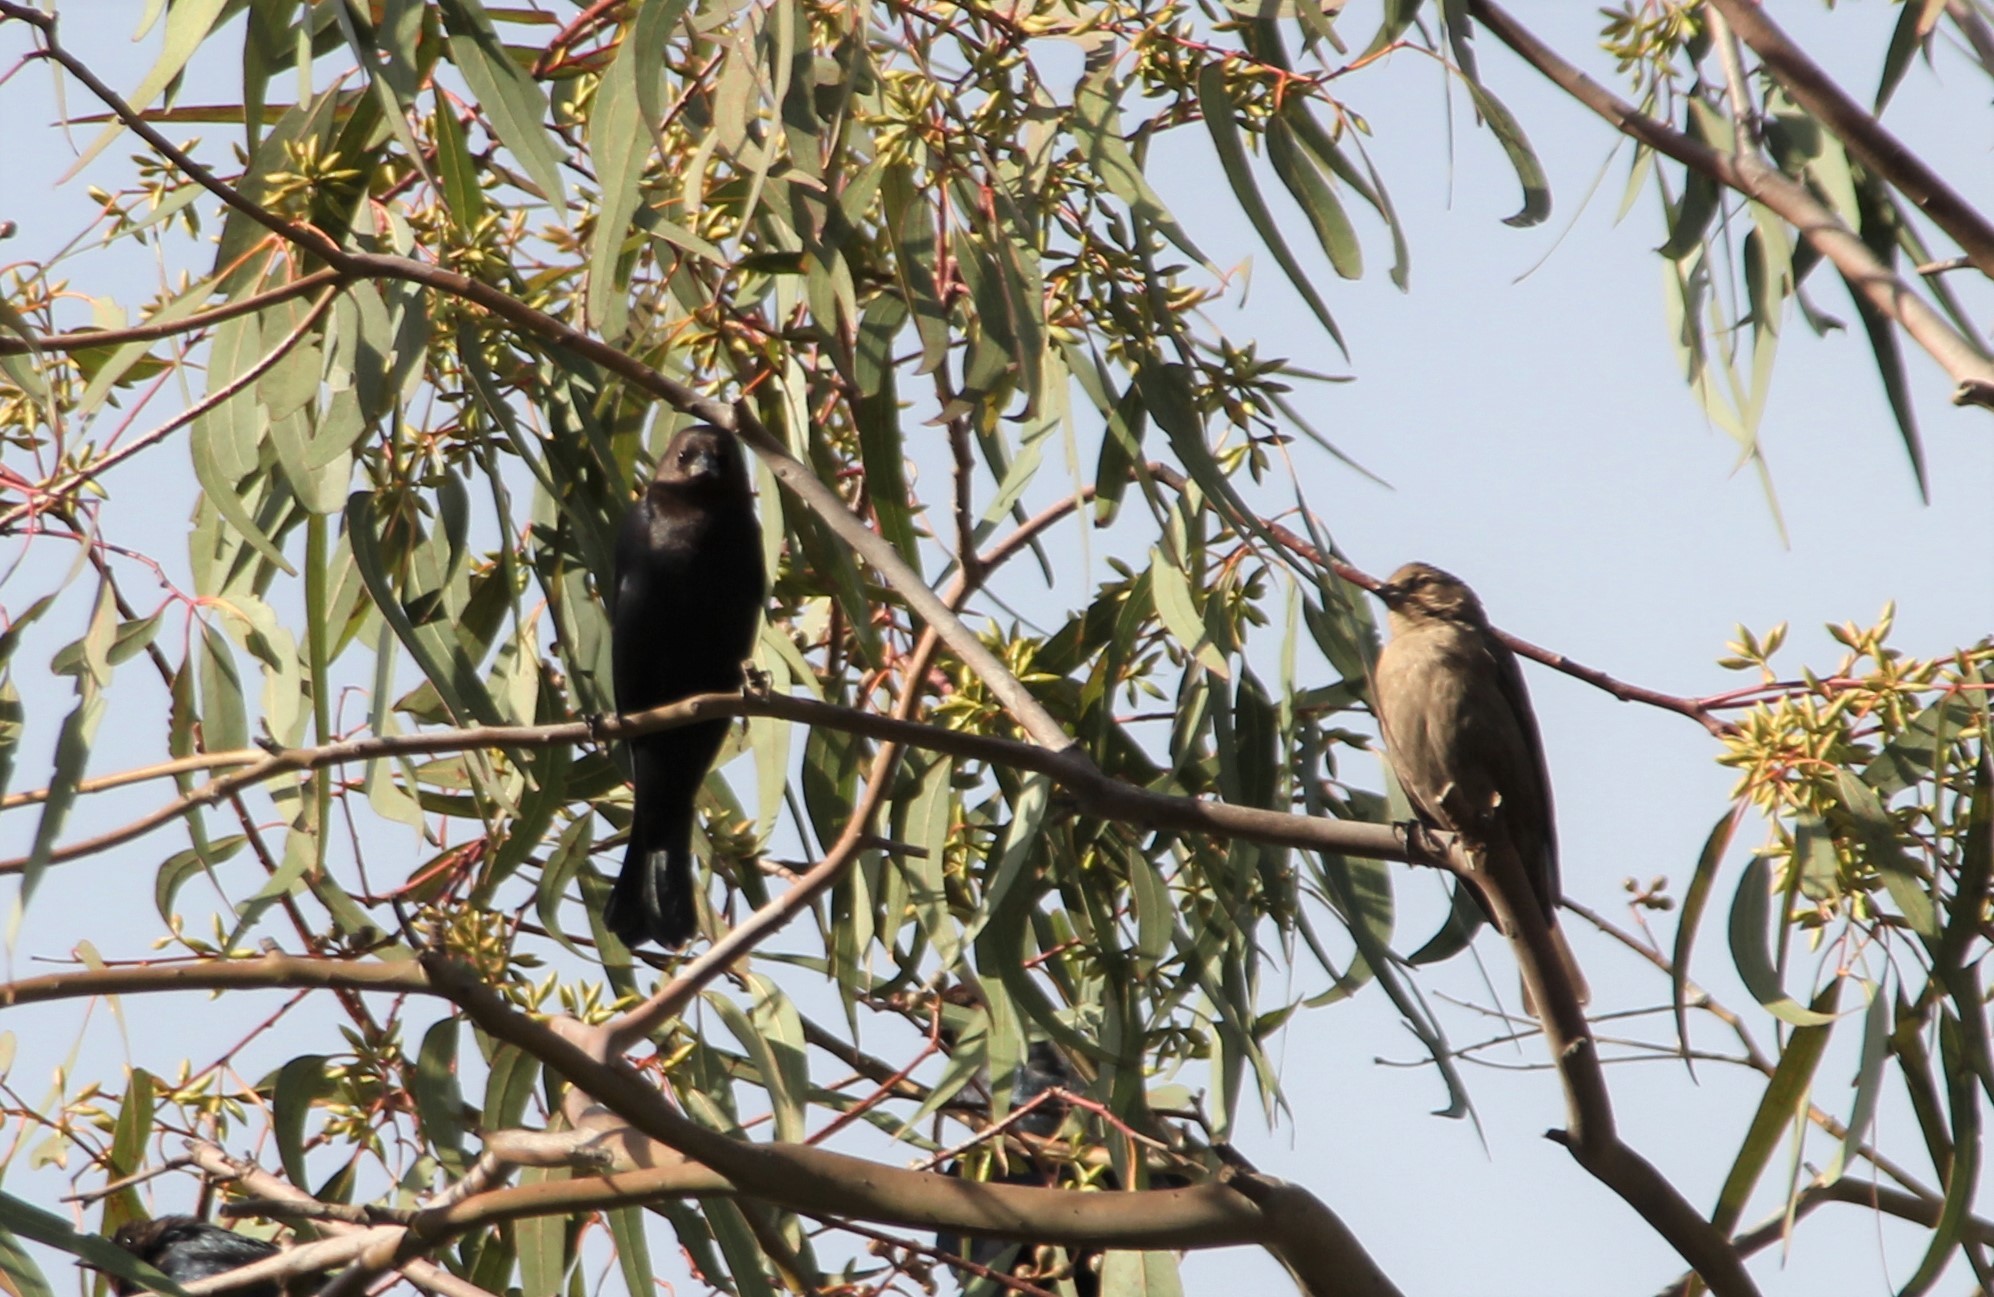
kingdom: Animalia
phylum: Chordata
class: Aves
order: Passeriformes
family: Icteridae
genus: Molothrus
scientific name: Molothrus ater
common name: Brown-headed cowbird
